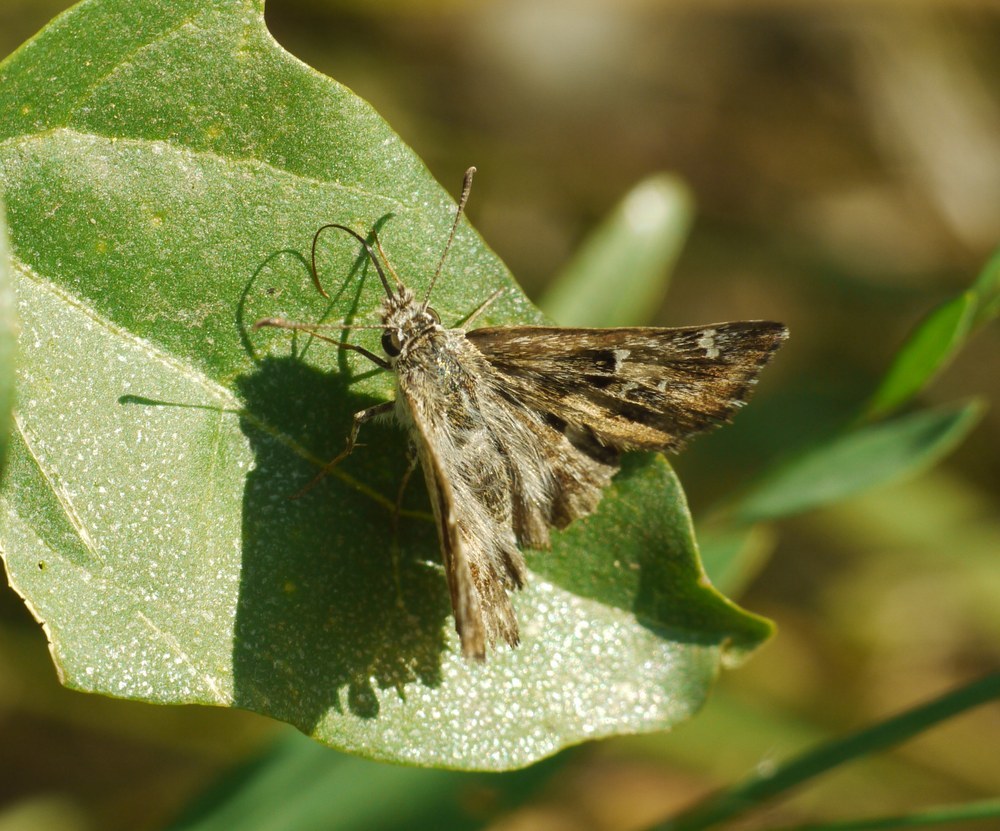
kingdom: Animalia
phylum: Arthropoda
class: Insecta
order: Lepidoptera
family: Hesperiidae
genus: Carcharodus
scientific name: Carcharodus alceae
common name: Mallow skipper
